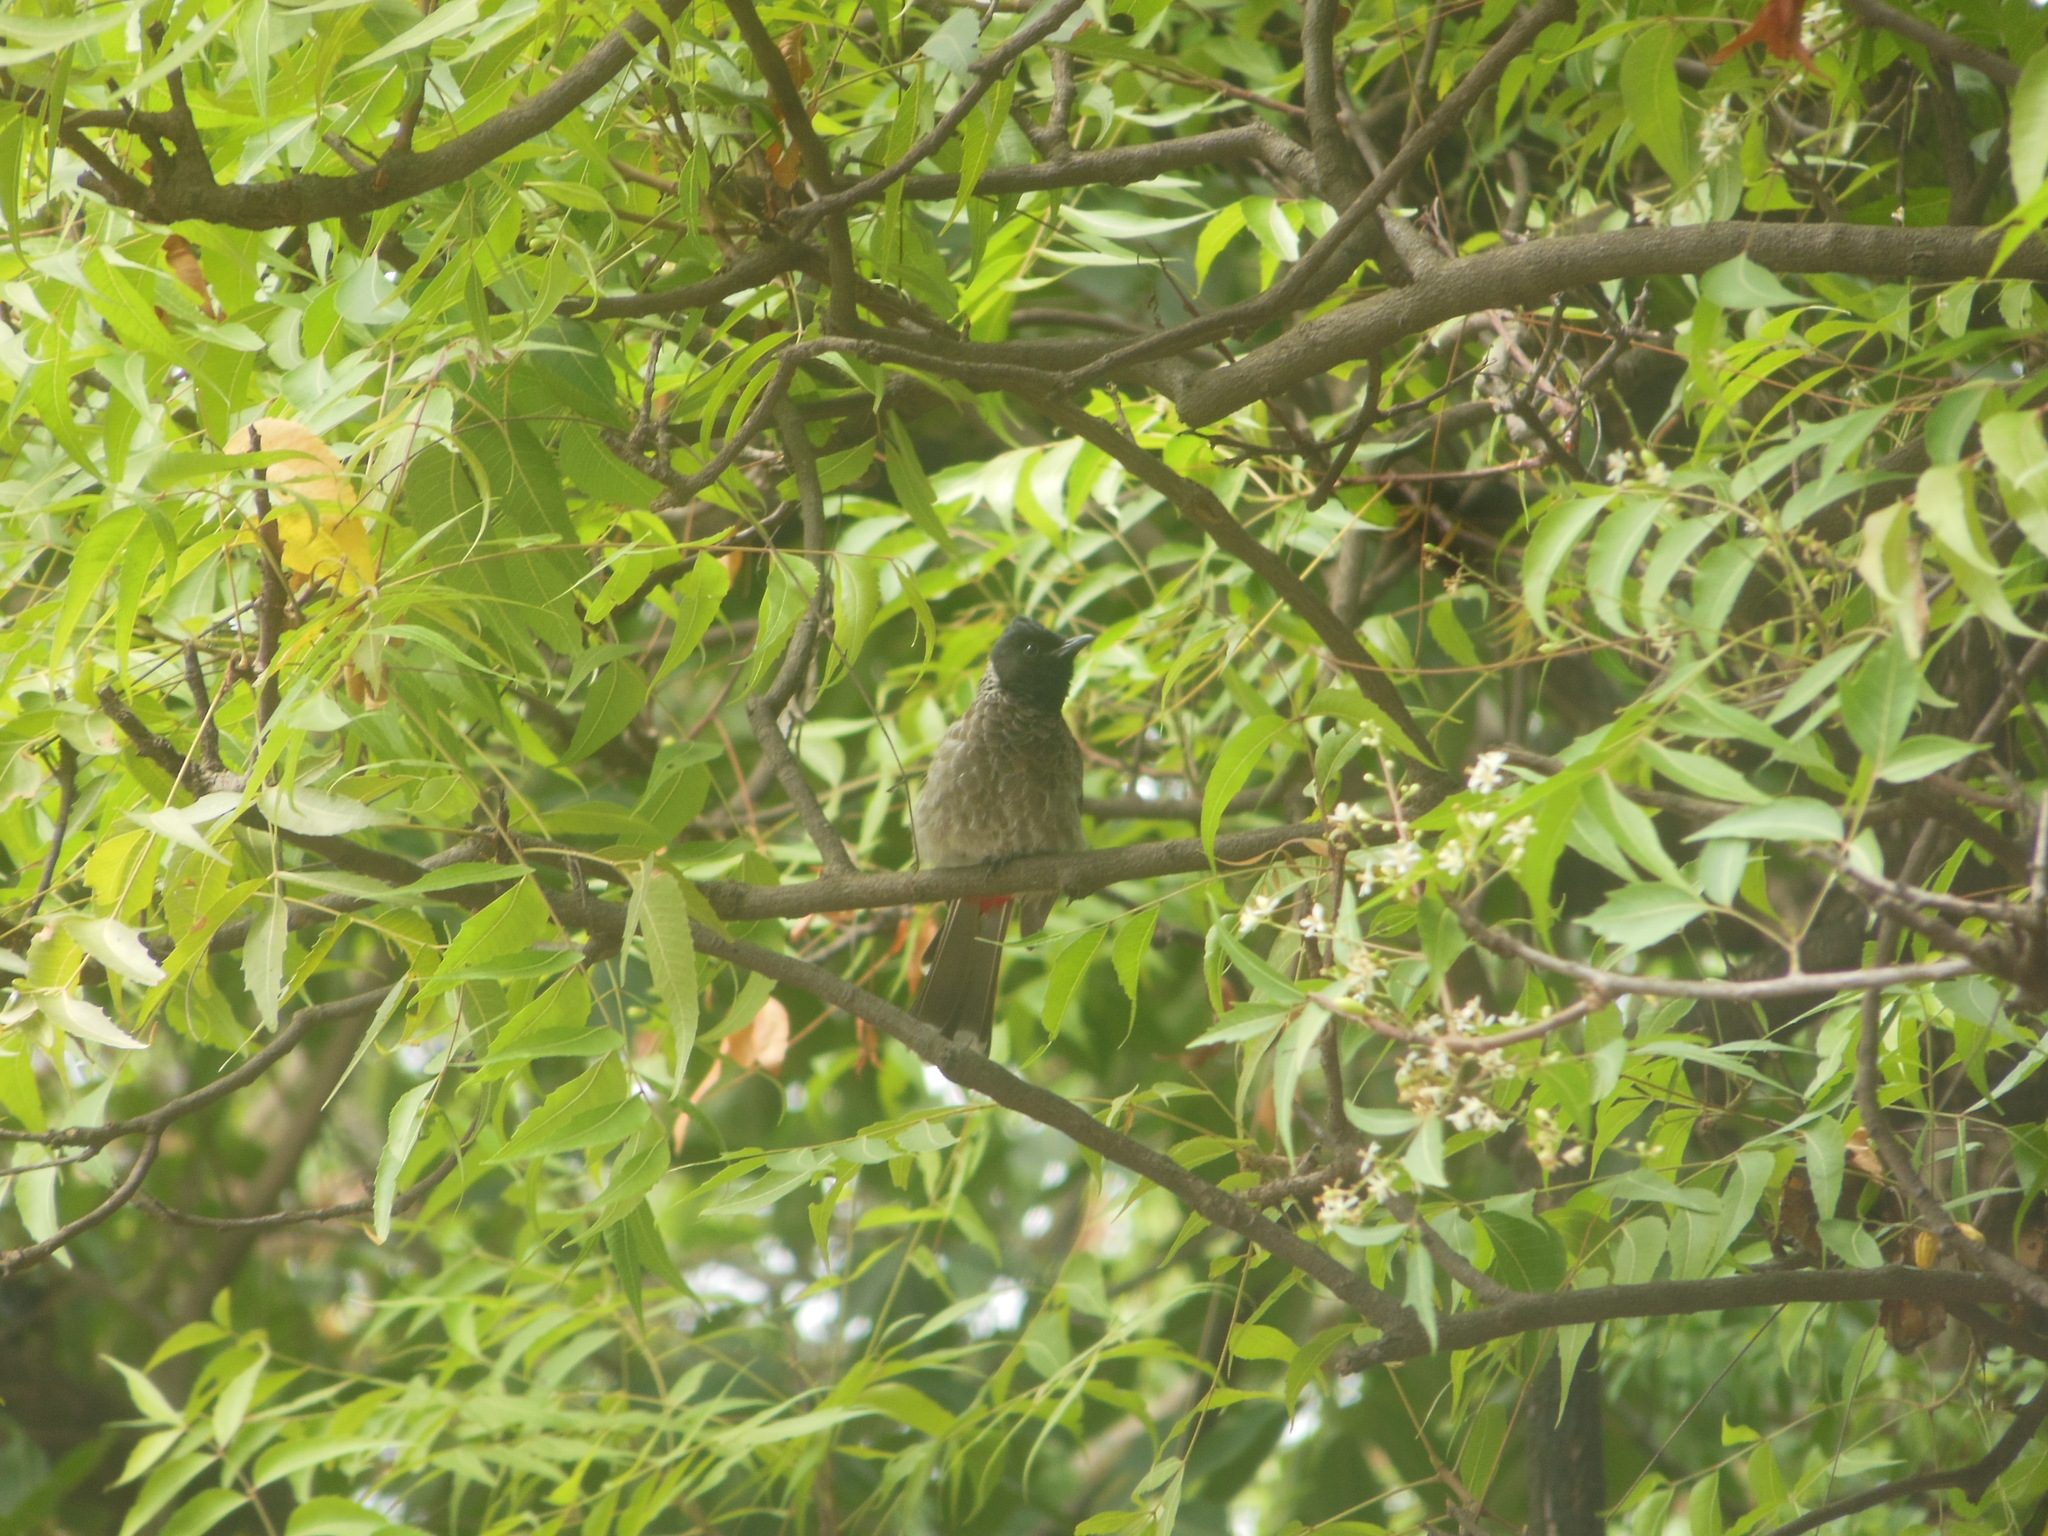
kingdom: Animalia
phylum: Chordata
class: Aves
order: Passeriformes
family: Pycnonotidae
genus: Pycnonotus
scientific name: Pycnonotus cafer
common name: Red-vented bulbul
